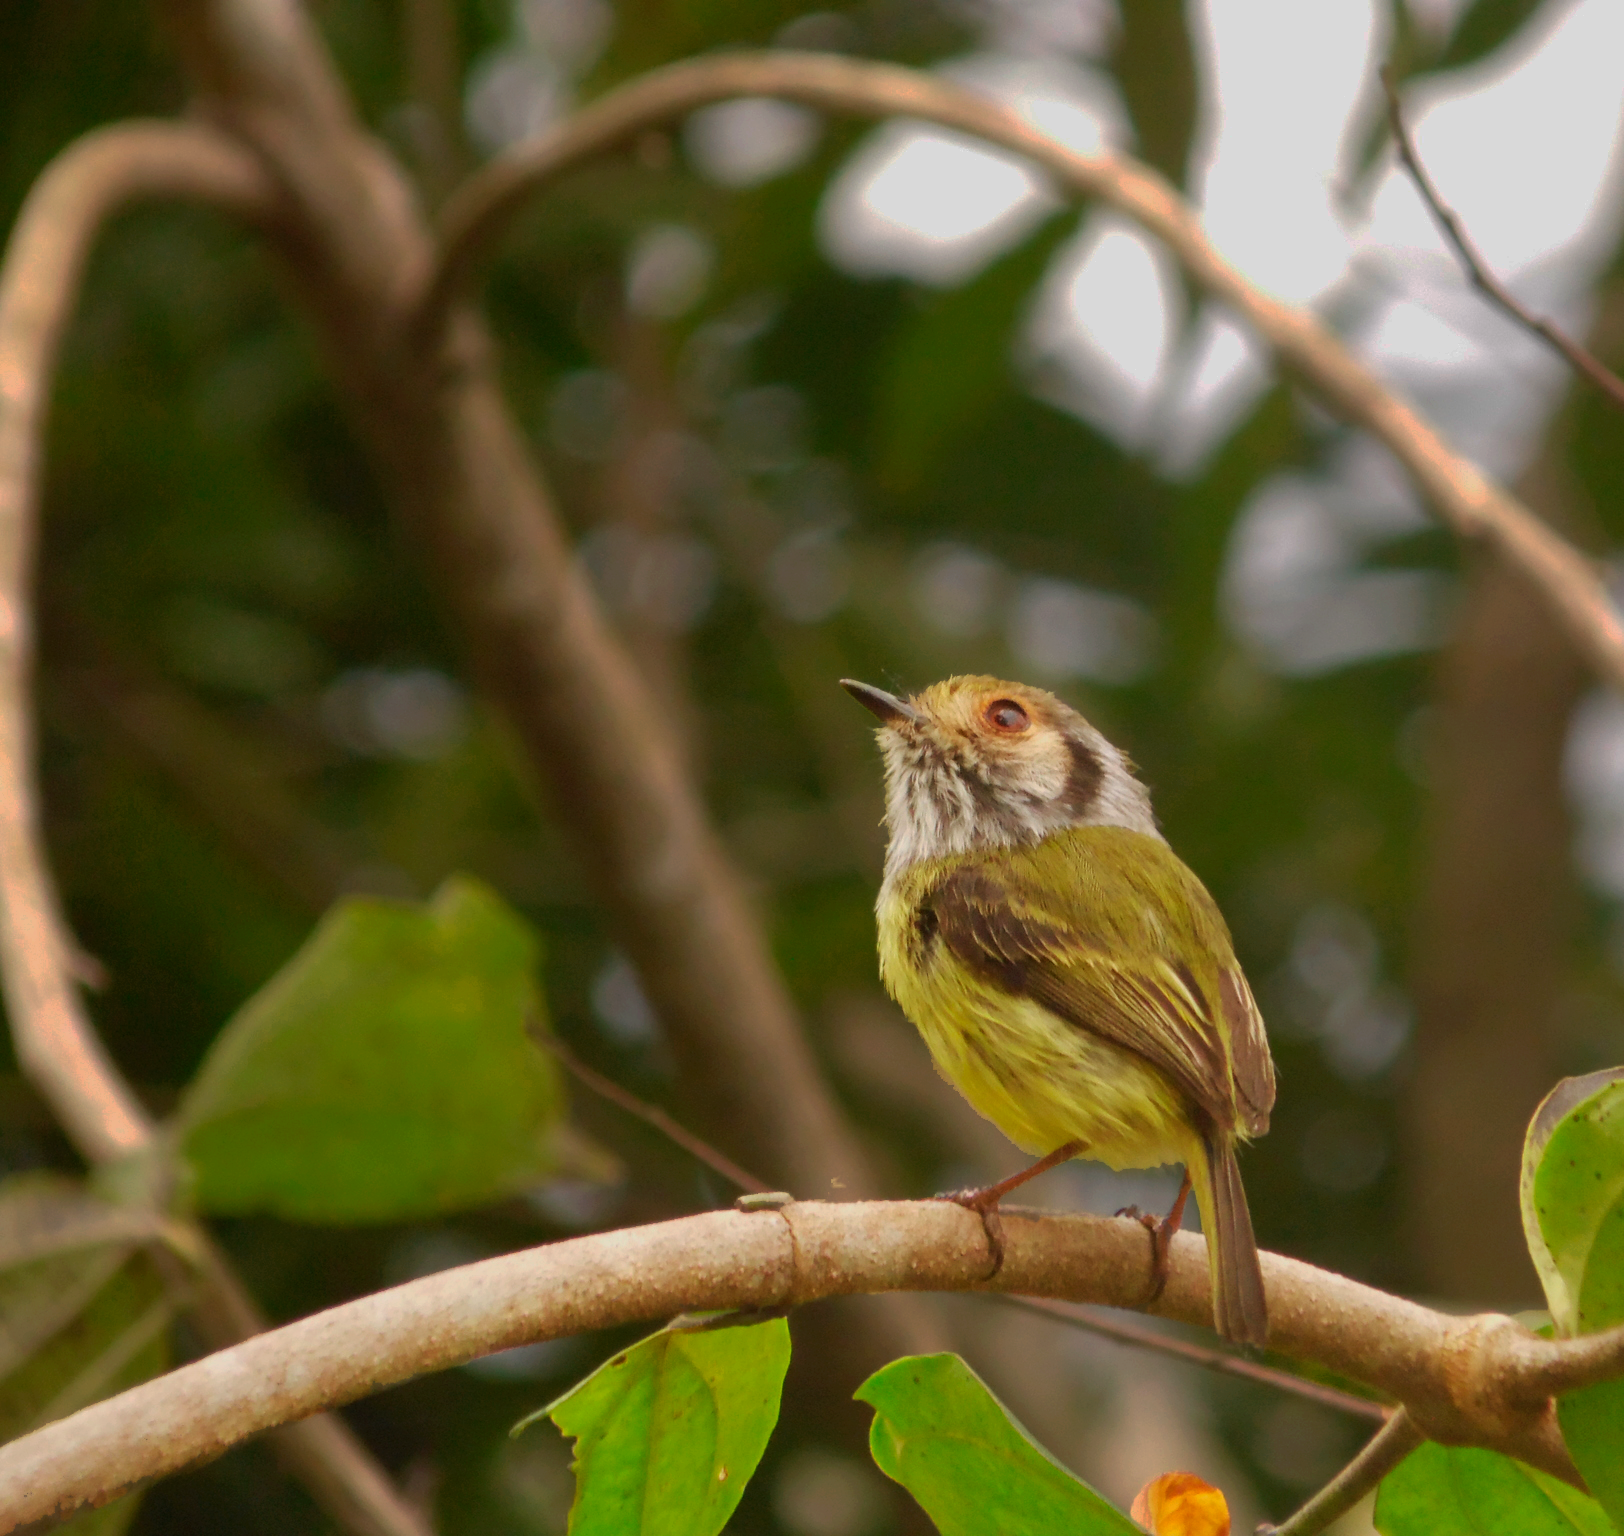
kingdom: Animalia
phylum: Chordata
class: Aves
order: Passeriformes
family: Tyrannidae
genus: Myiornis
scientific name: Myiornis auricularis
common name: Eared pygmy tyrant
